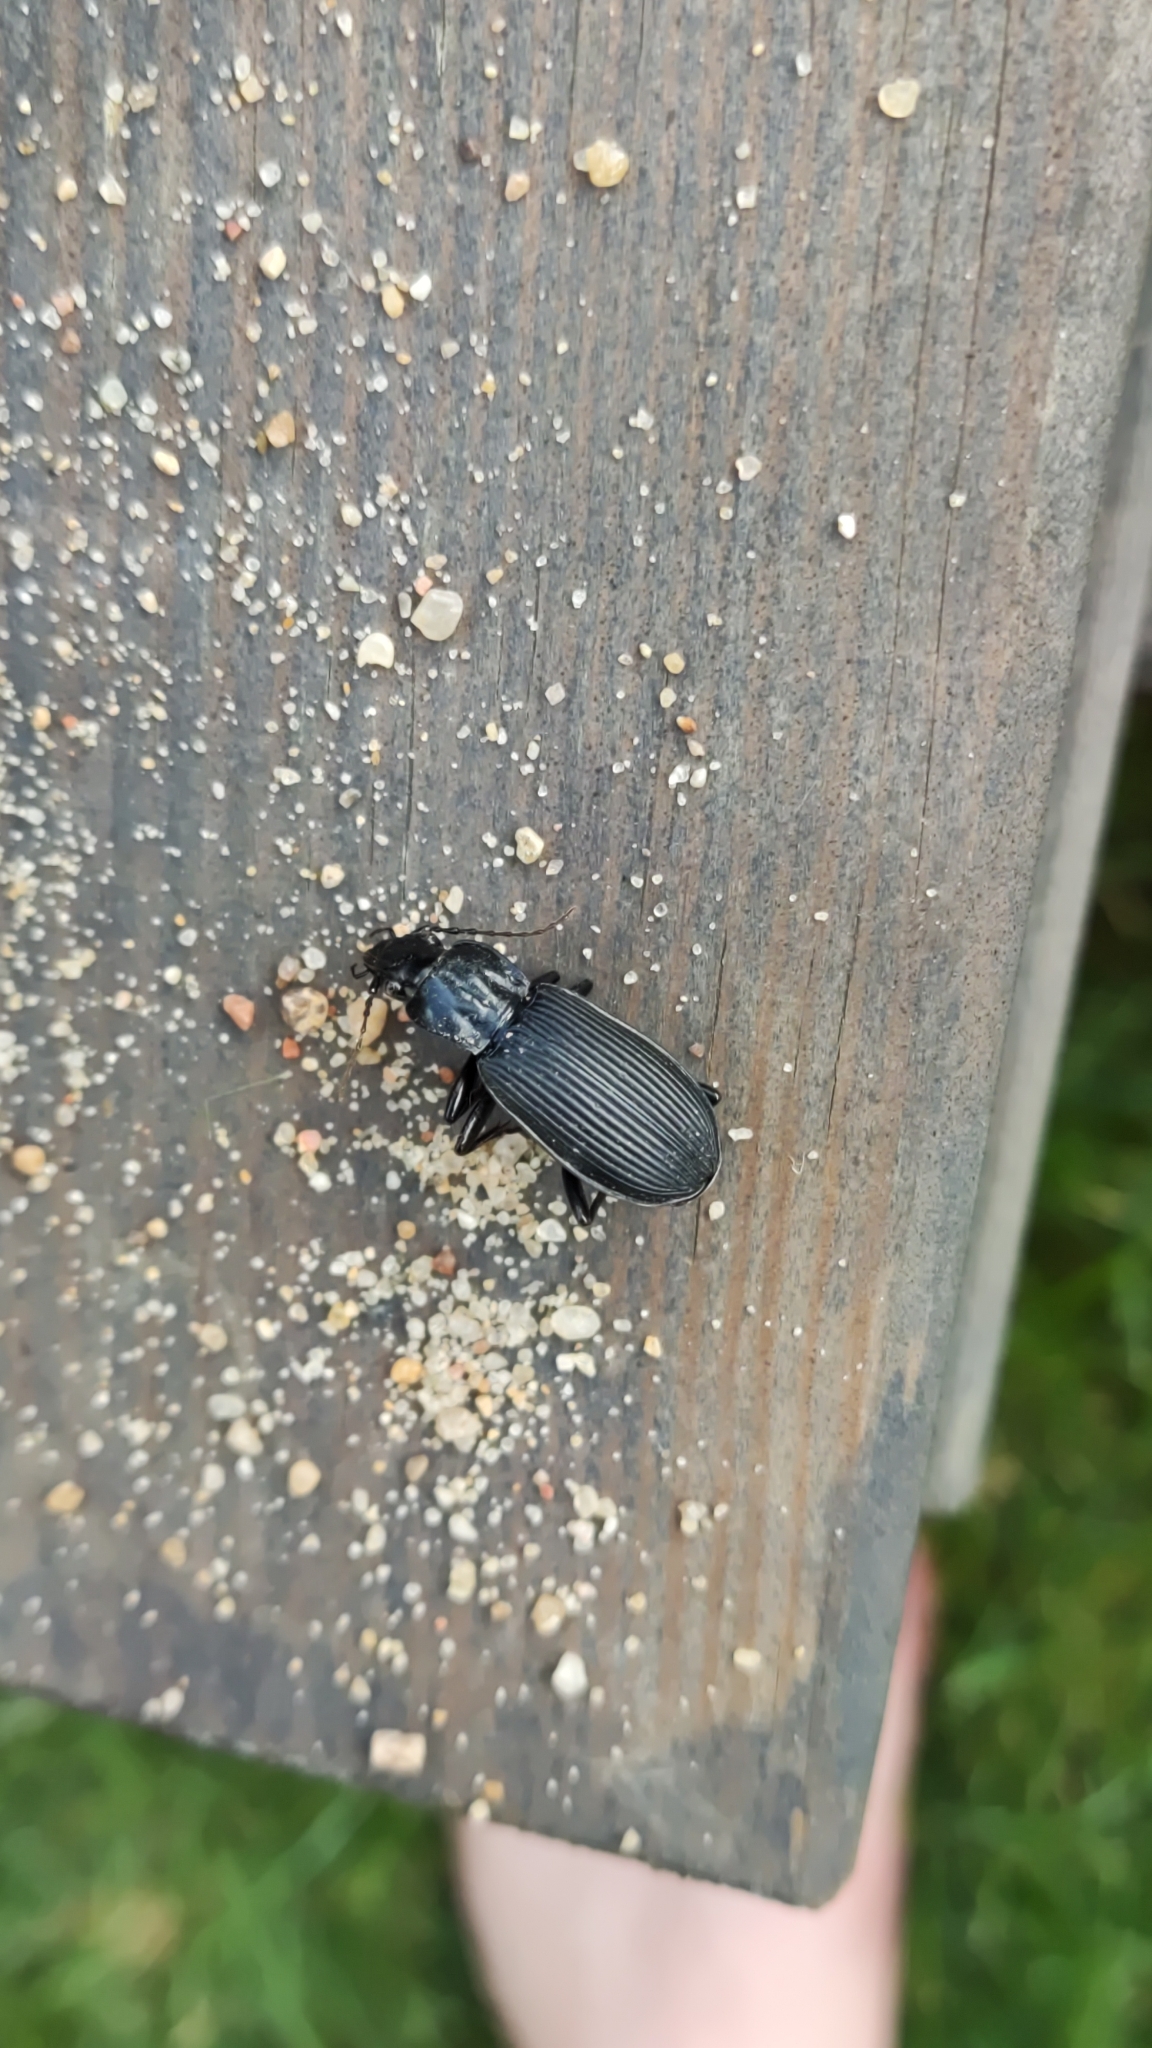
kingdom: Animalia
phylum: Arthropoda
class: Insecta
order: Coleoptera
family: Carabidae
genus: Pterostichus
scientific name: Pterostichus niger
